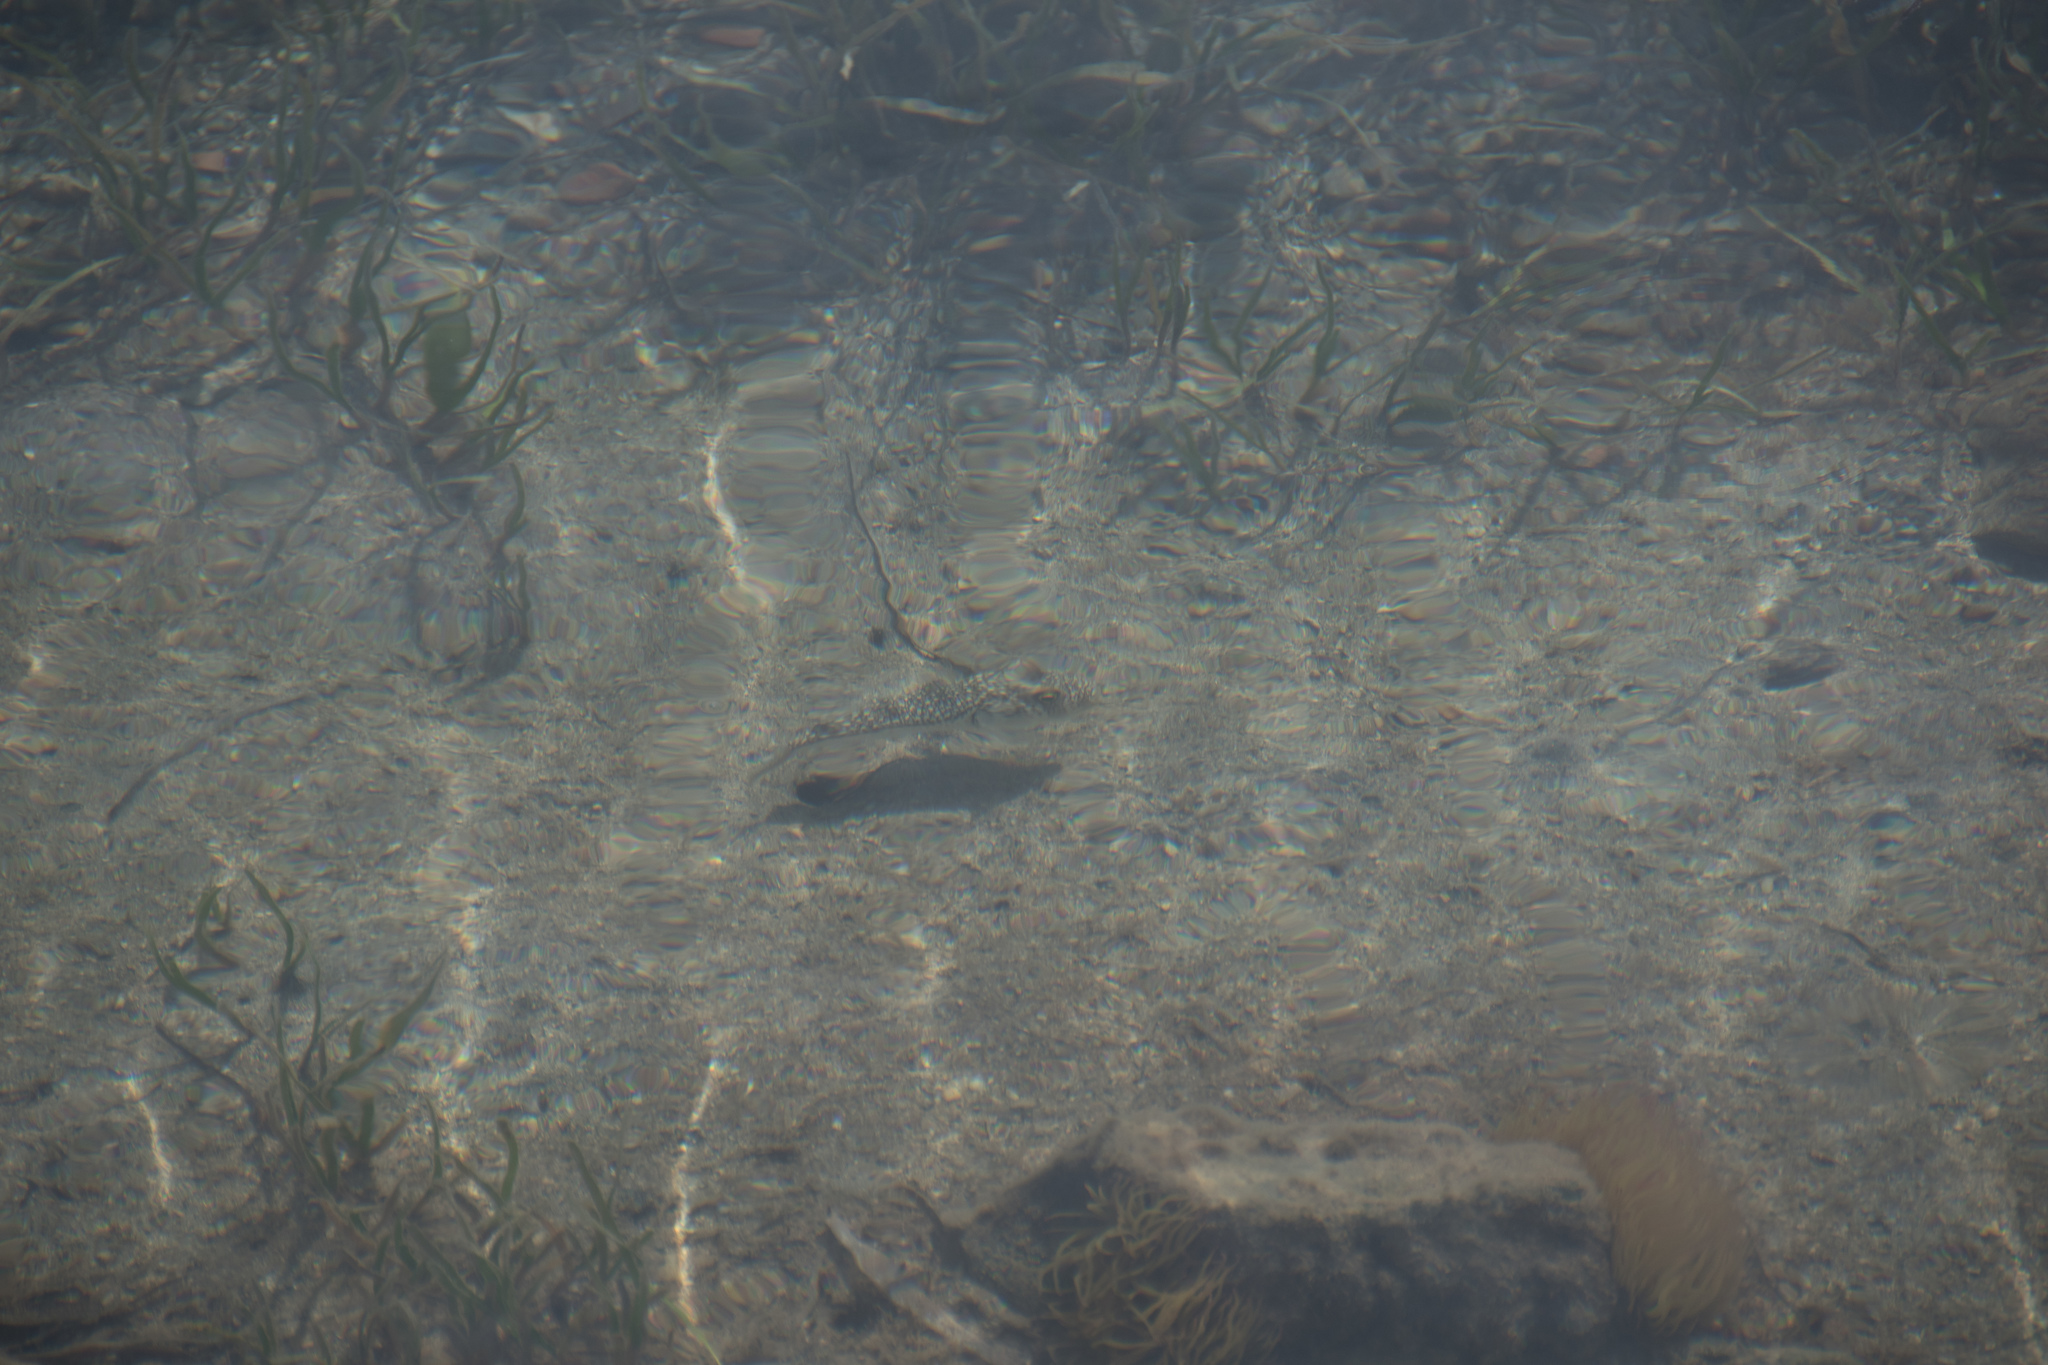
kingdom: Animalia
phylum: Chordata
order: Tetraodontiformes
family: Tetraodontidae
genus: Torquigener
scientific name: Torquigener flavimaculosus
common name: Studded pufferfish
